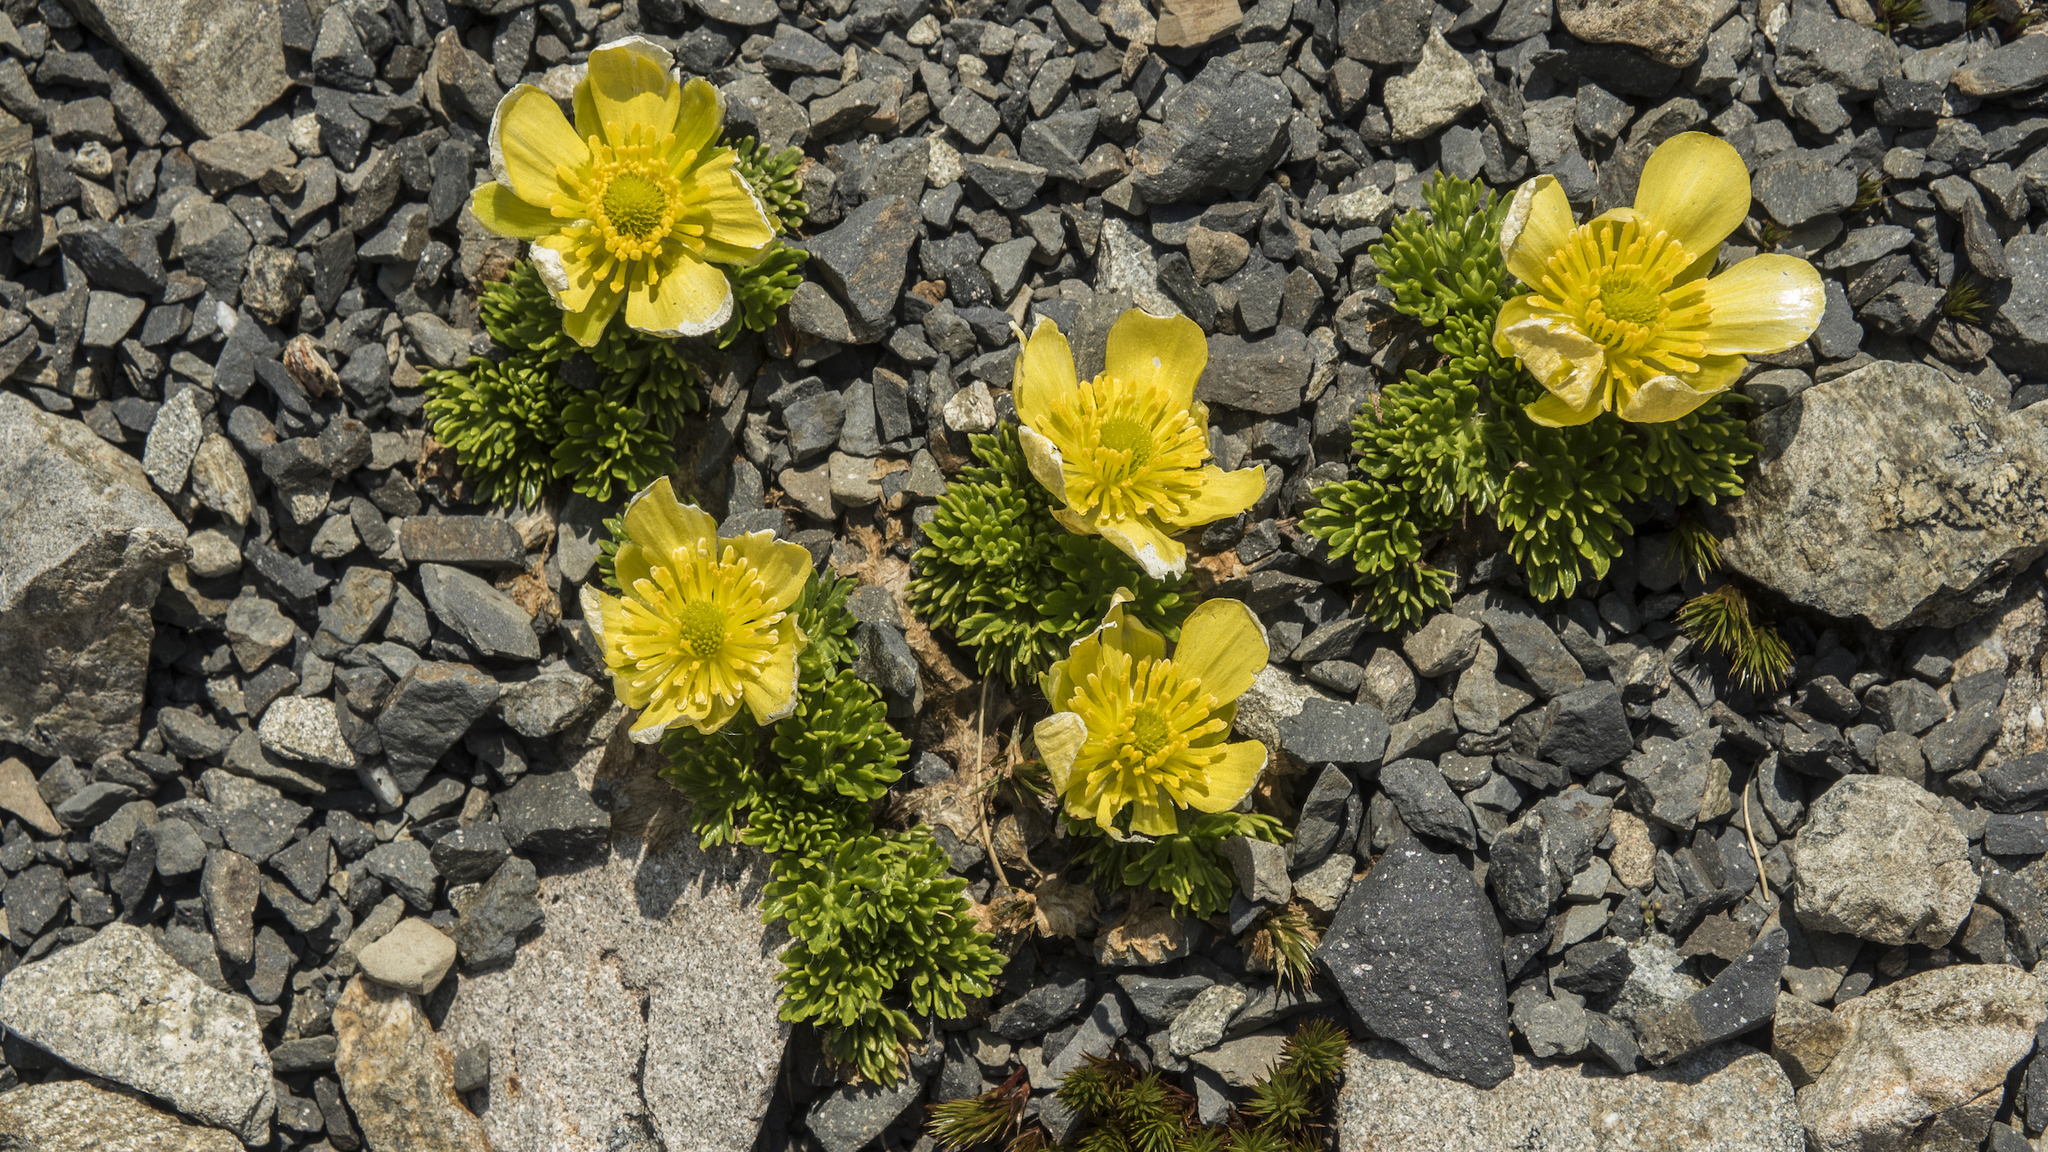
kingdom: Plantae
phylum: Tracheophyta
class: Magnoliopsida
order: Ranunculales
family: Ranunculaceae
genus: Ranunculus
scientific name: Ranunculus sericophyllus
